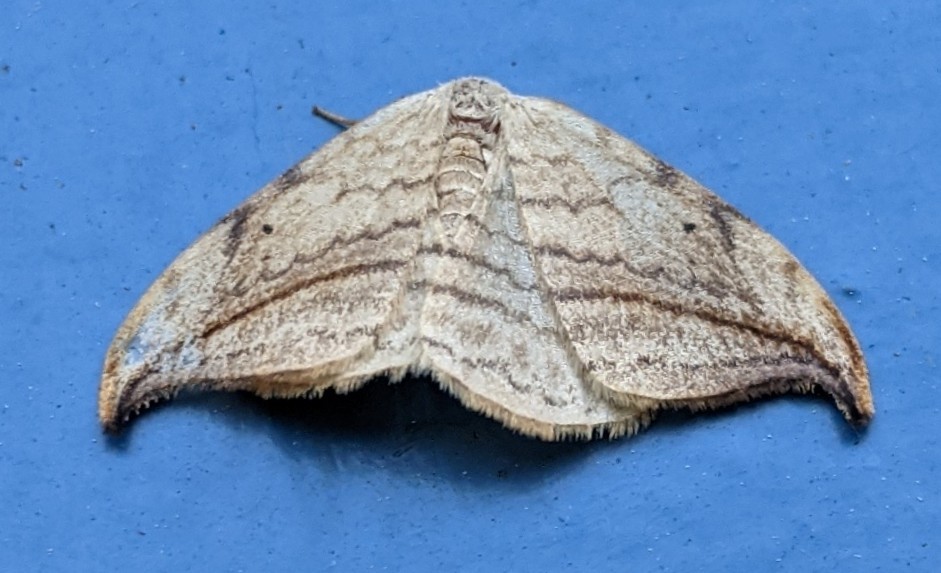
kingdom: Animalia
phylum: Arthropoda
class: Insecta
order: Lepidoptera
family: Drepanidae
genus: Drepana
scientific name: Drepana arcuata
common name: Arched hooktip moth
